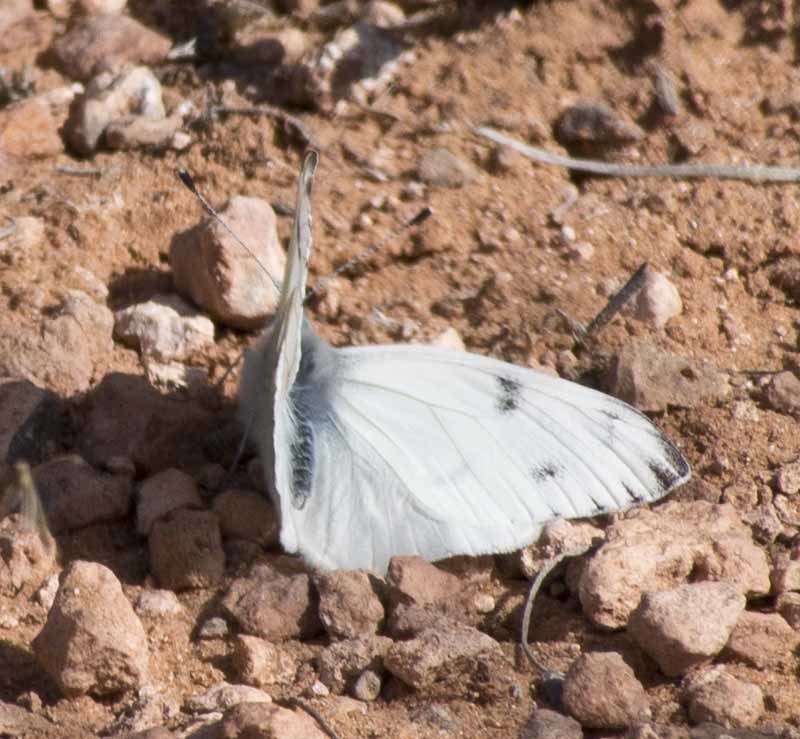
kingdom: Animalia
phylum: Arthropoda
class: Insecta
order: Lepidoptera
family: Pieridae
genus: Pontia
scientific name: Pontia protodice
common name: Checkered white
